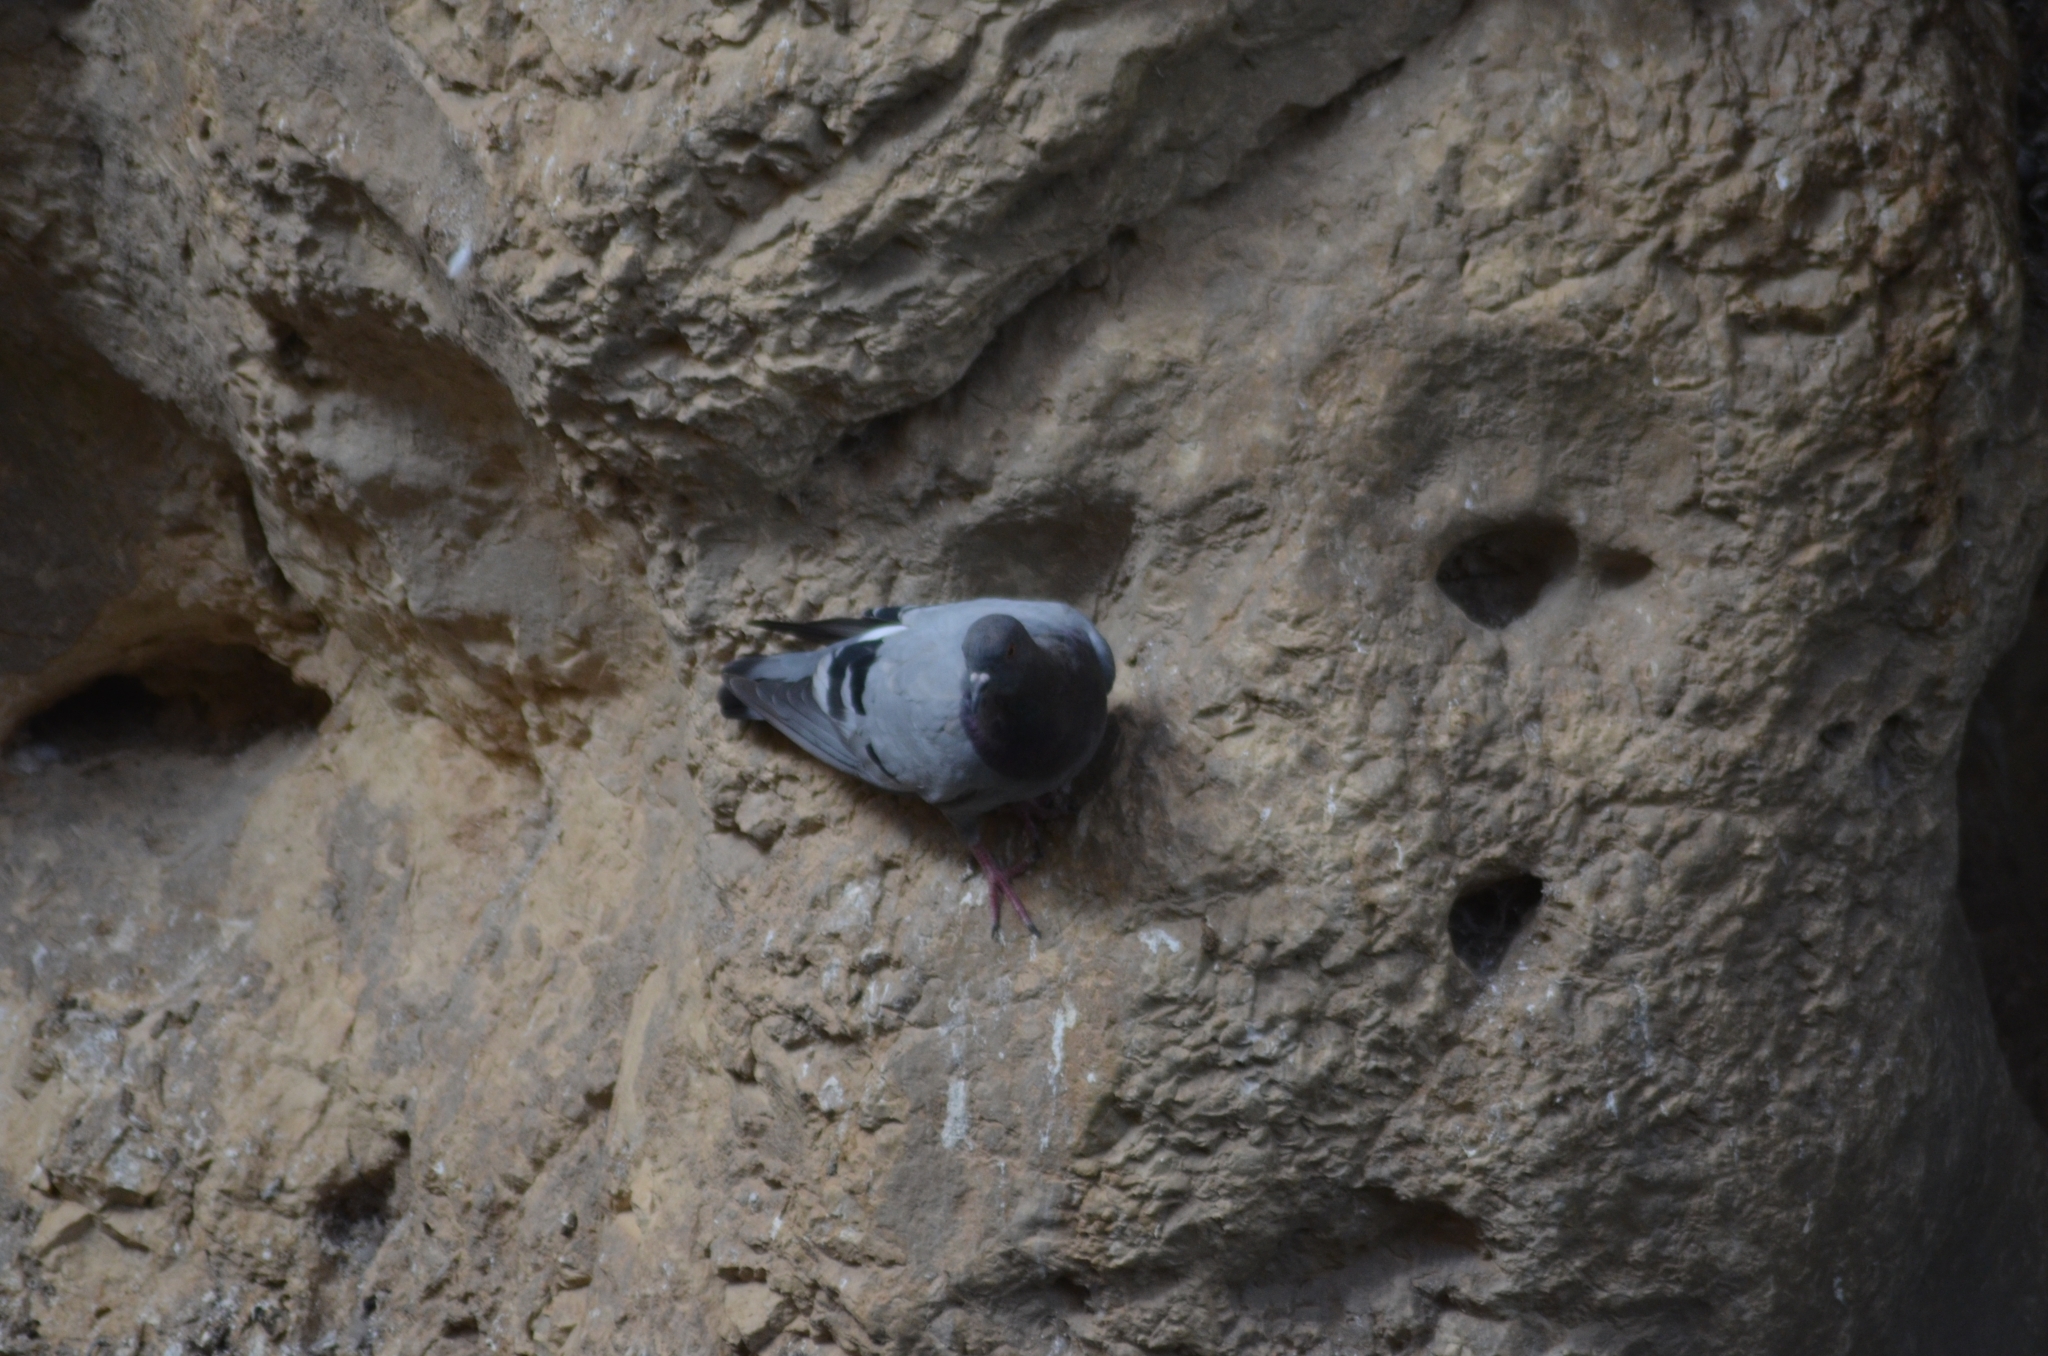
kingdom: Animalia
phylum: Chordata
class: Aves
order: Columbiformes
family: Columbidae
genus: Columba
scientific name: Columba livia
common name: Rock pigeon
